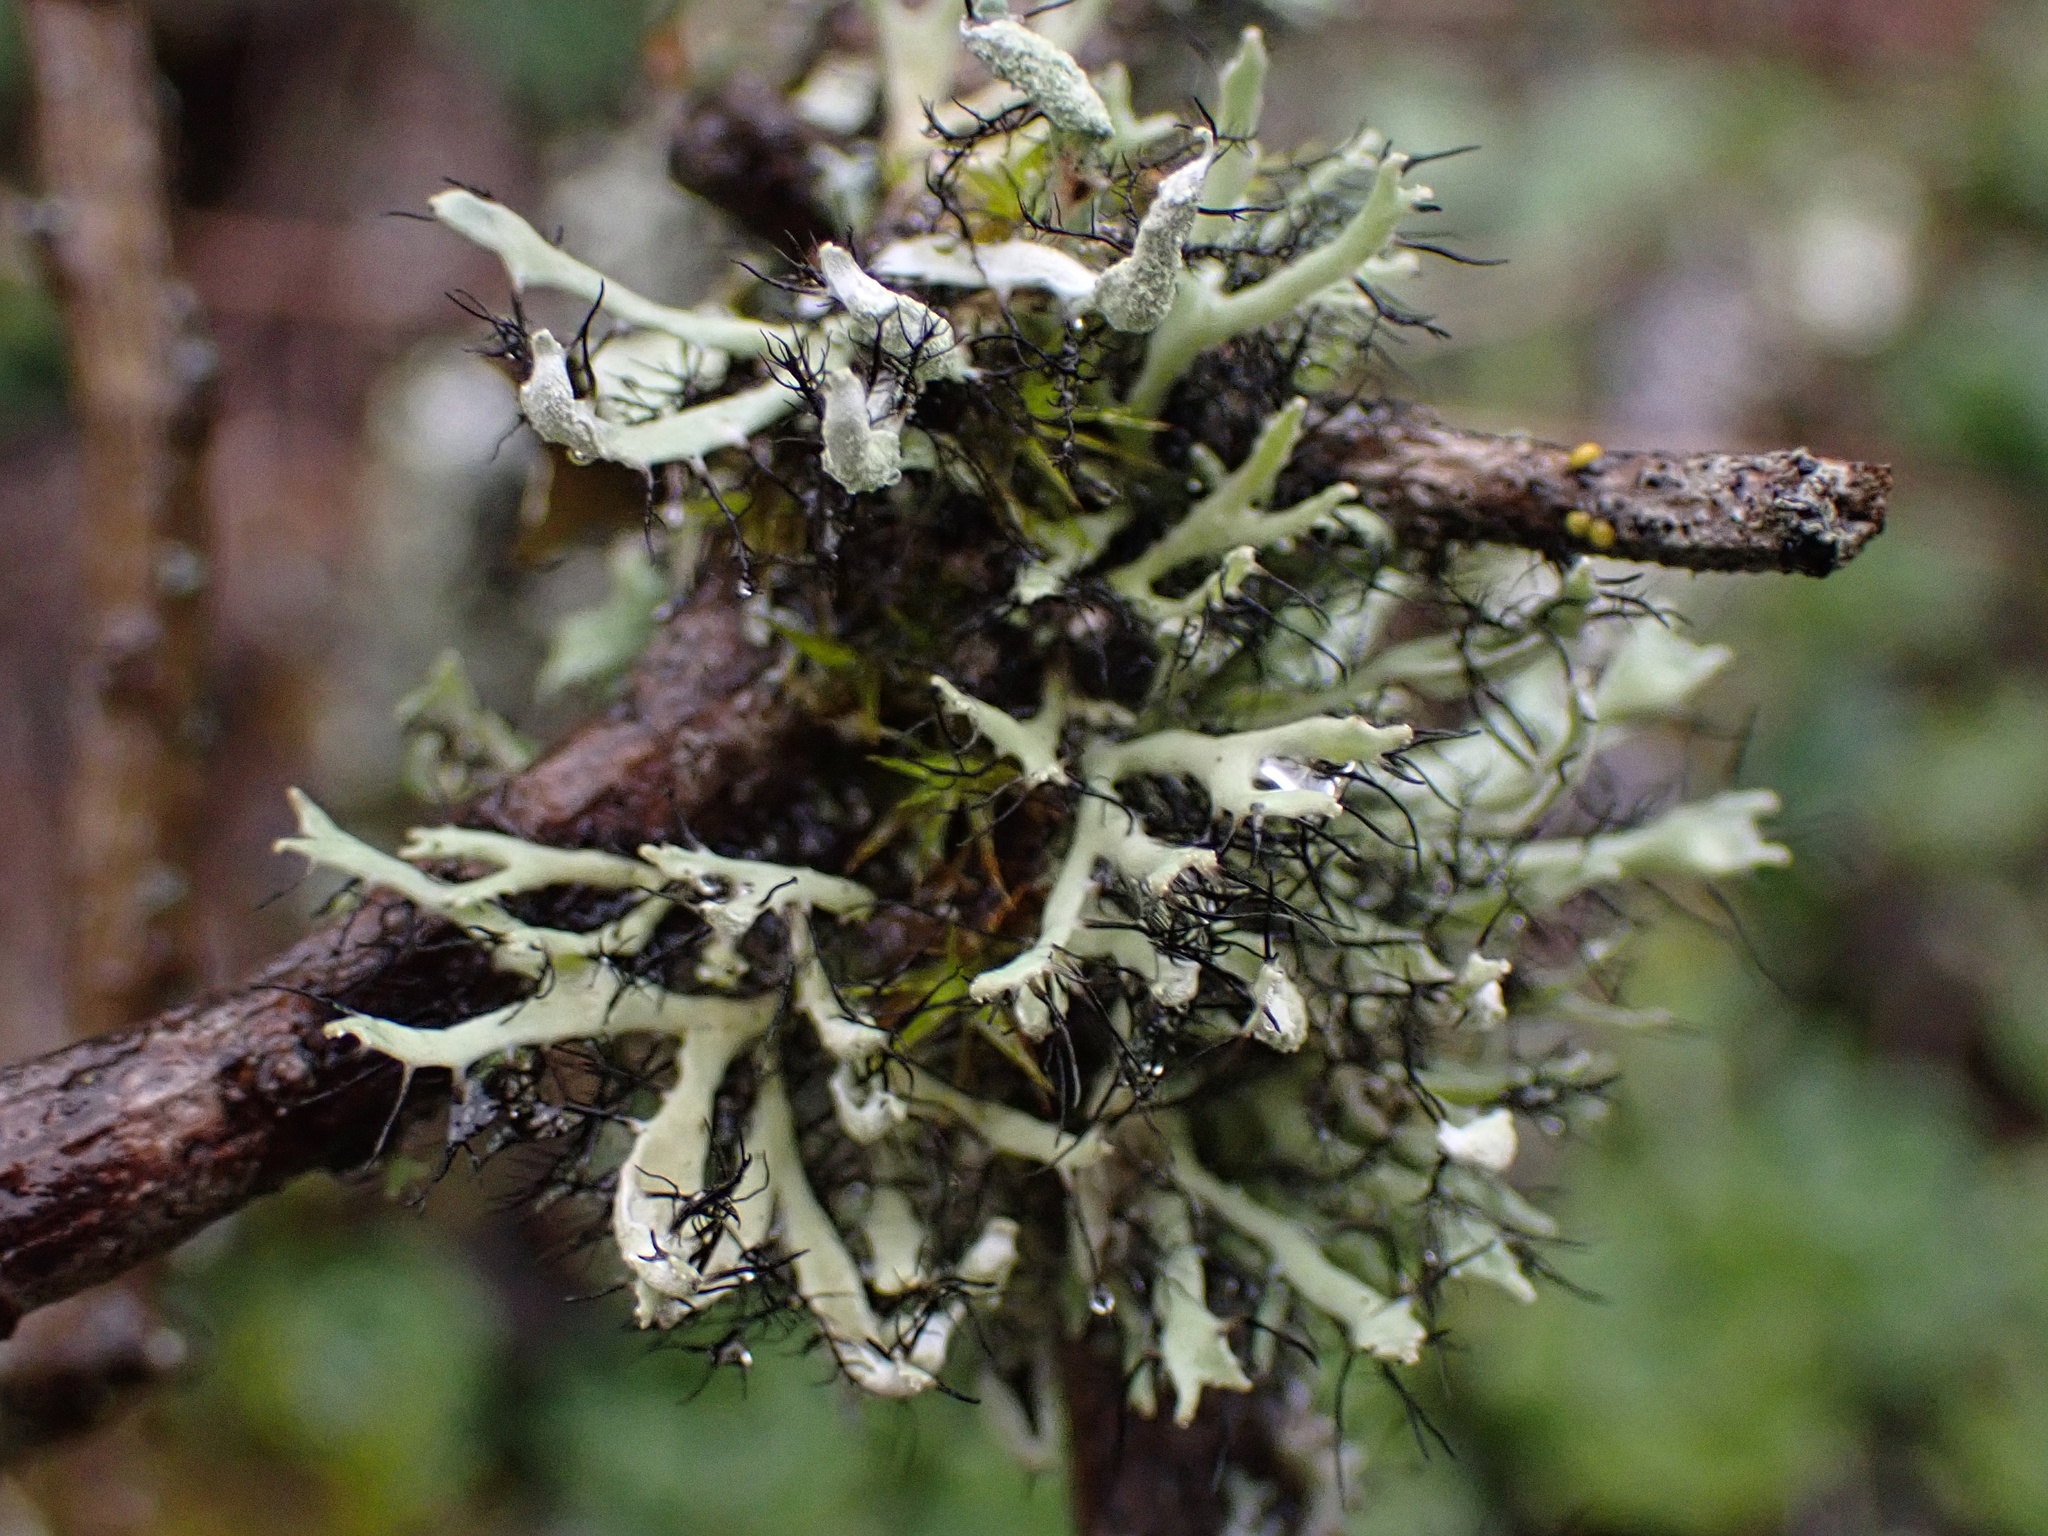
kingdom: Fungi
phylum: Ascomycota
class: Lecanoromycetes
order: Caliciales
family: Physciaceae
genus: Leucodermia
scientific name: Leucodermia leucomelos
